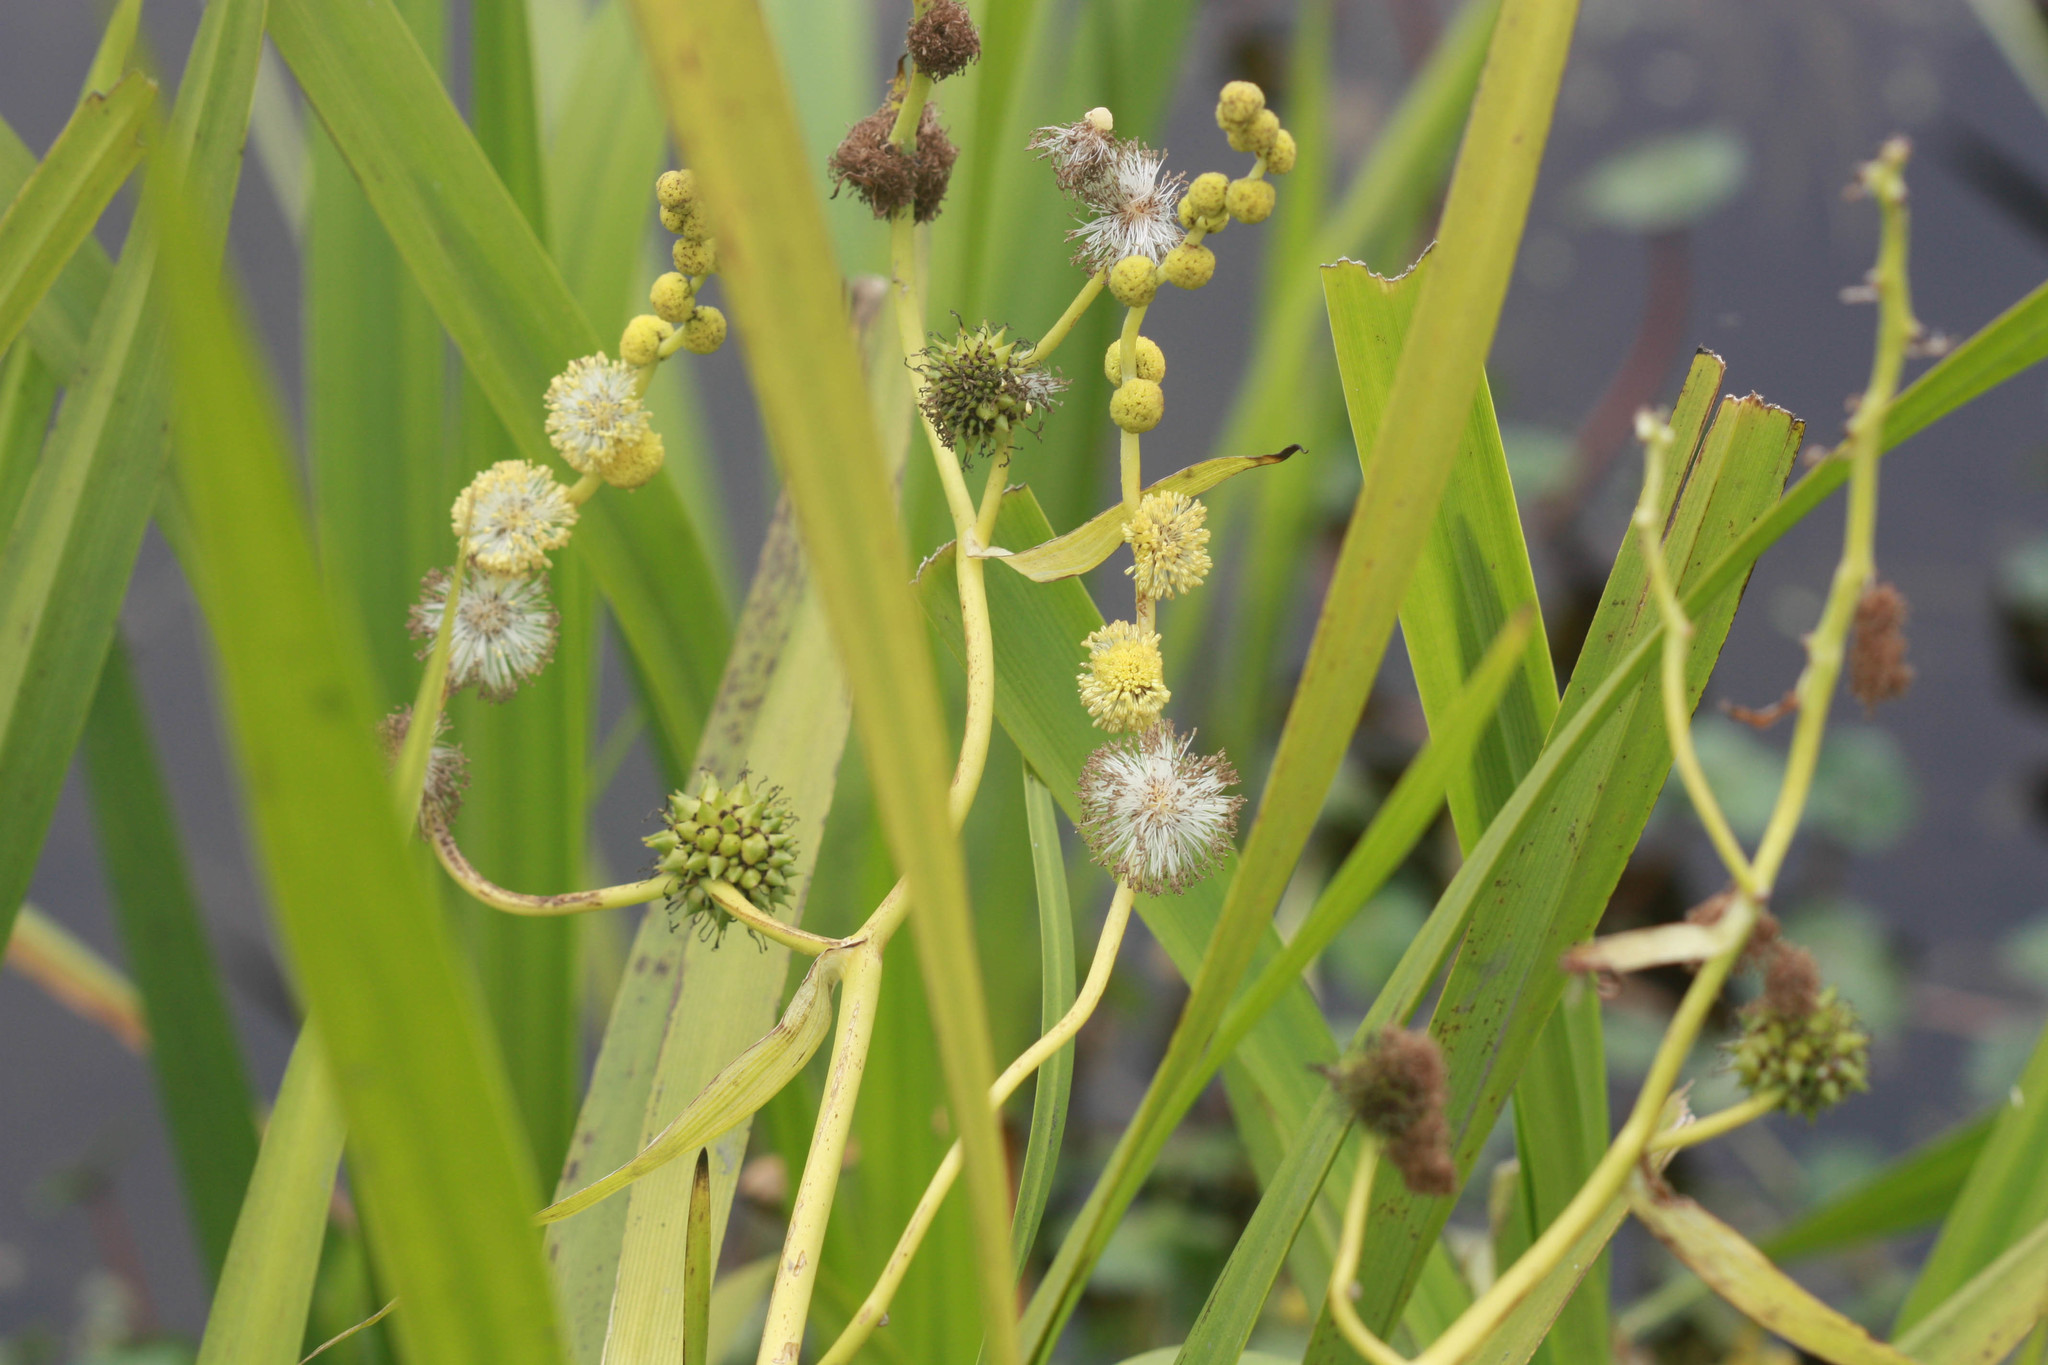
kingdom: Plantae
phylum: Tracheophyta
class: Liliopsida
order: Poales
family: Typhaceae
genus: Sparganium
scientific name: Sparganium eurycarpum
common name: Broad-fruited burreed
